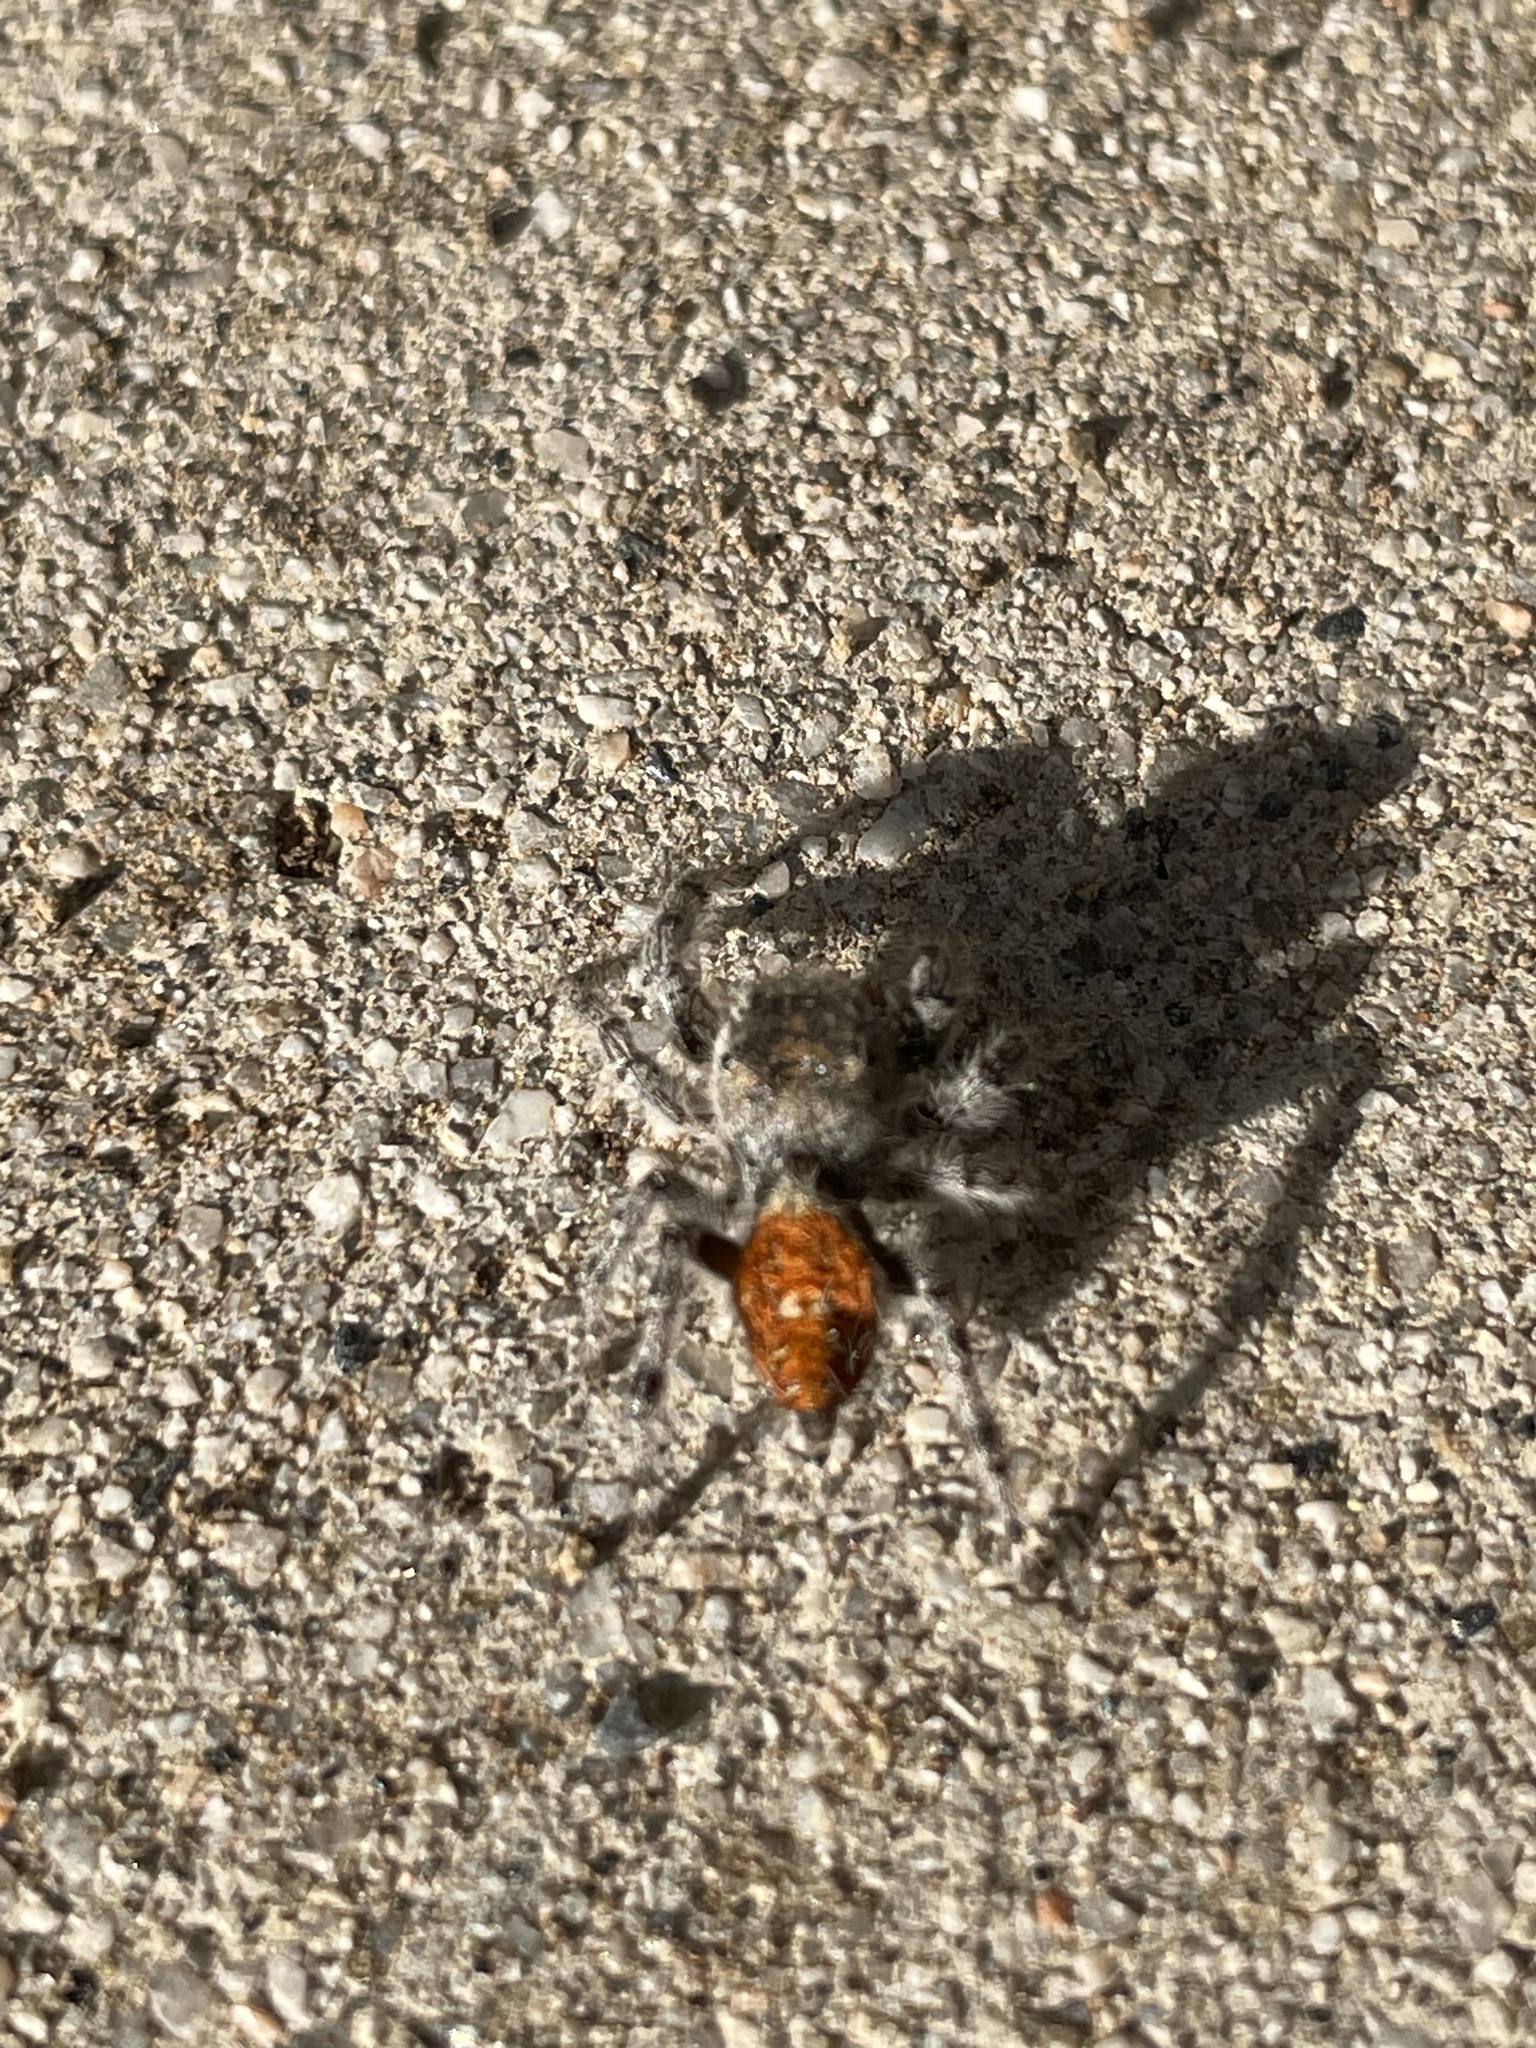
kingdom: Animalia
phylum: Arthropoda
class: Arachnida
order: Araneae
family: Salticidae
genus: Phidippus
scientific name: Phidippus adumbratus
